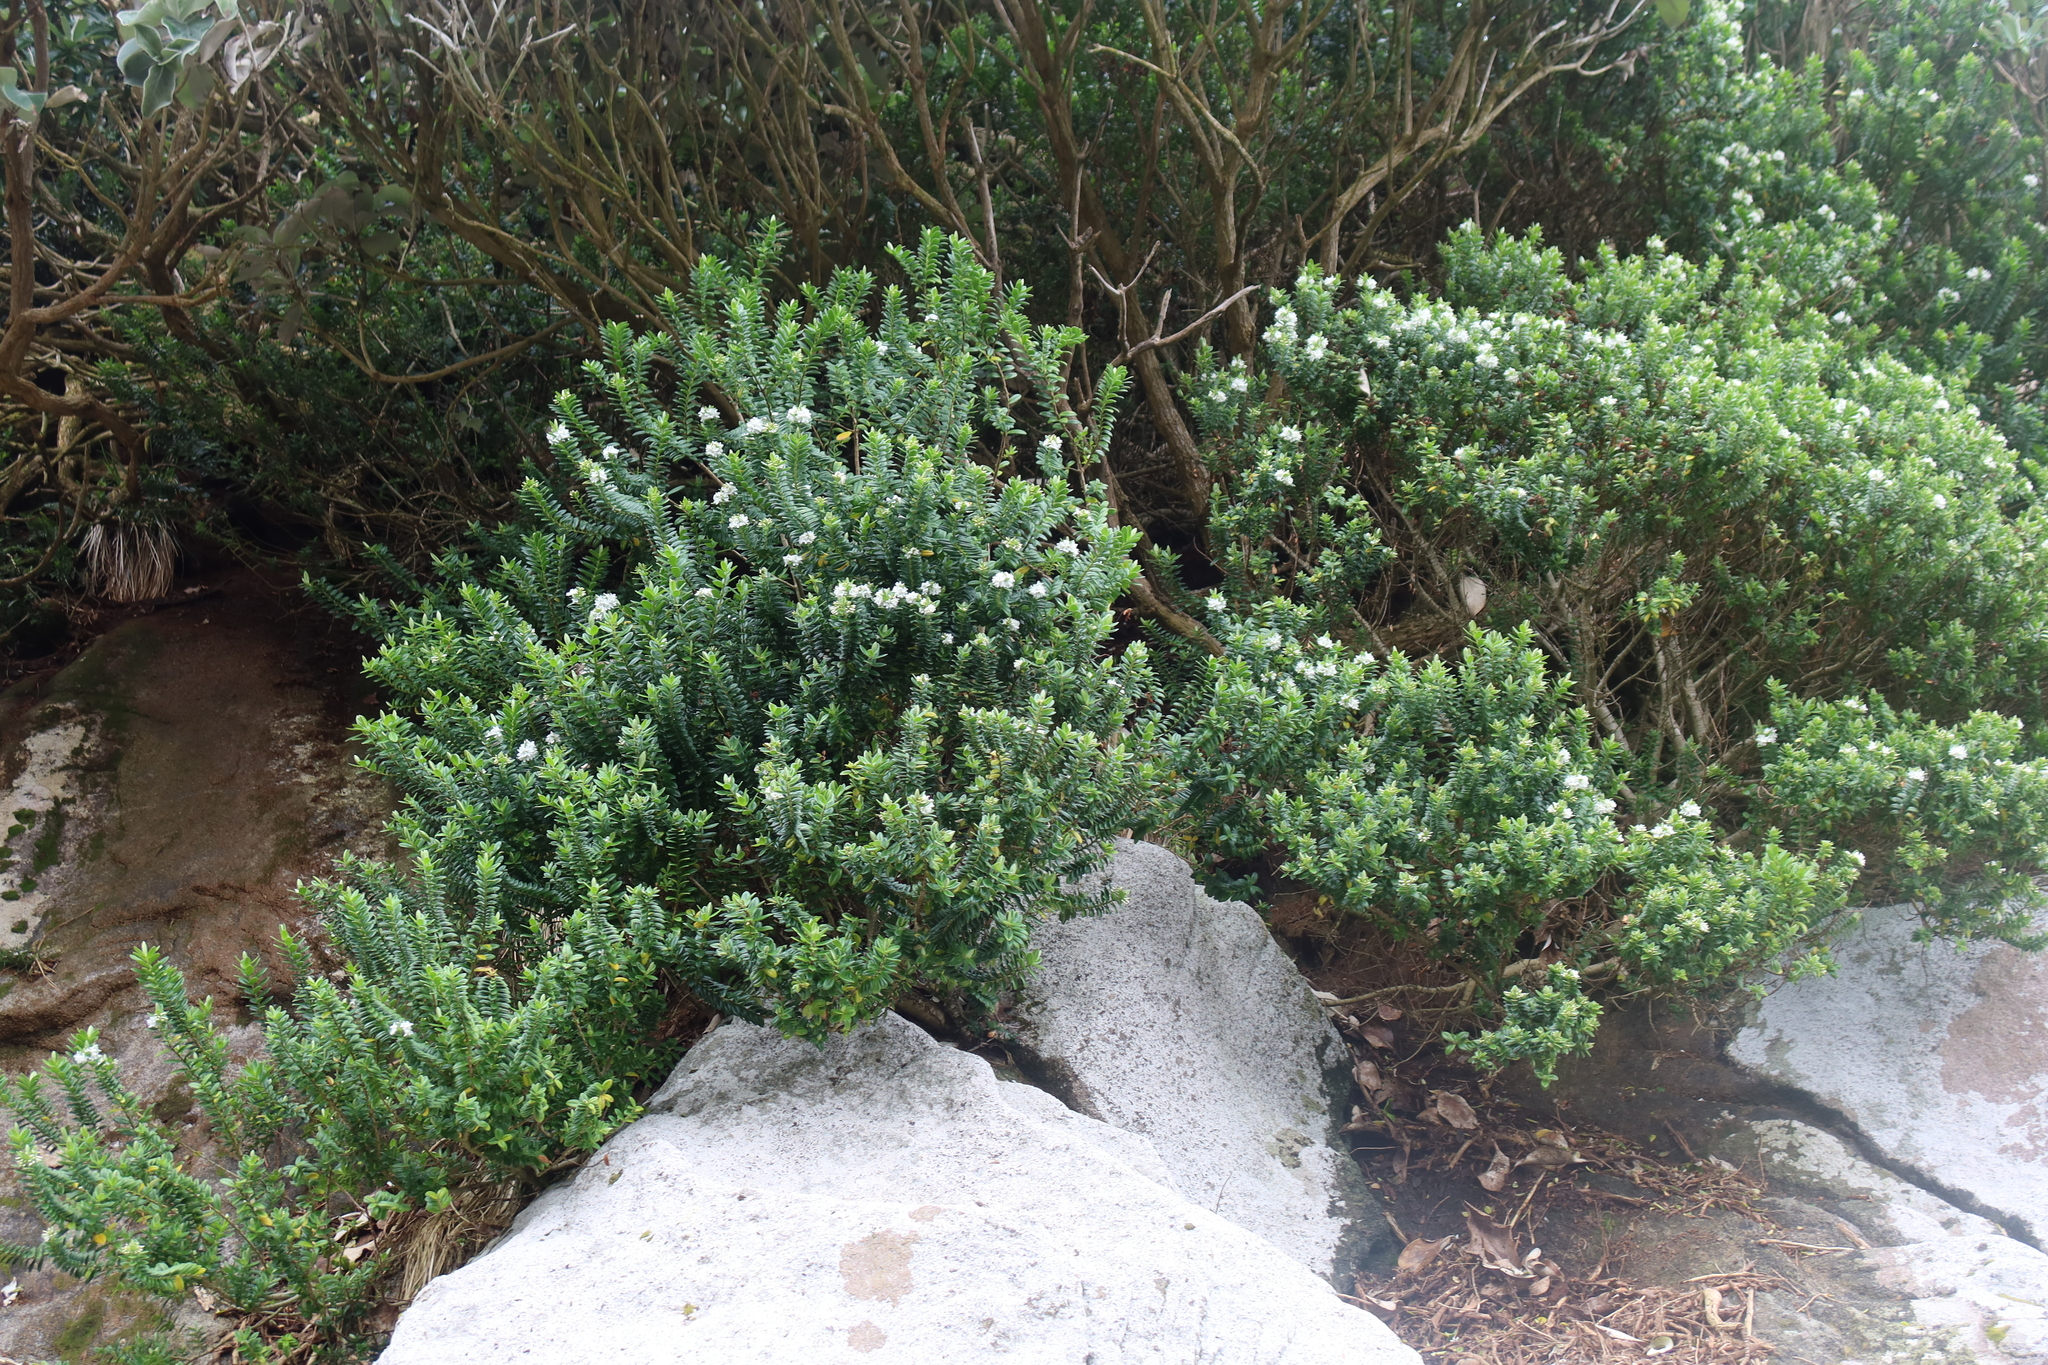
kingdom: Plantae
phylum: Tracheophyta
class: Magnoliopsida
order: Lamiales
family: Plantaginaceae
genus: Veronica
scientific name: Veronica elliptica
